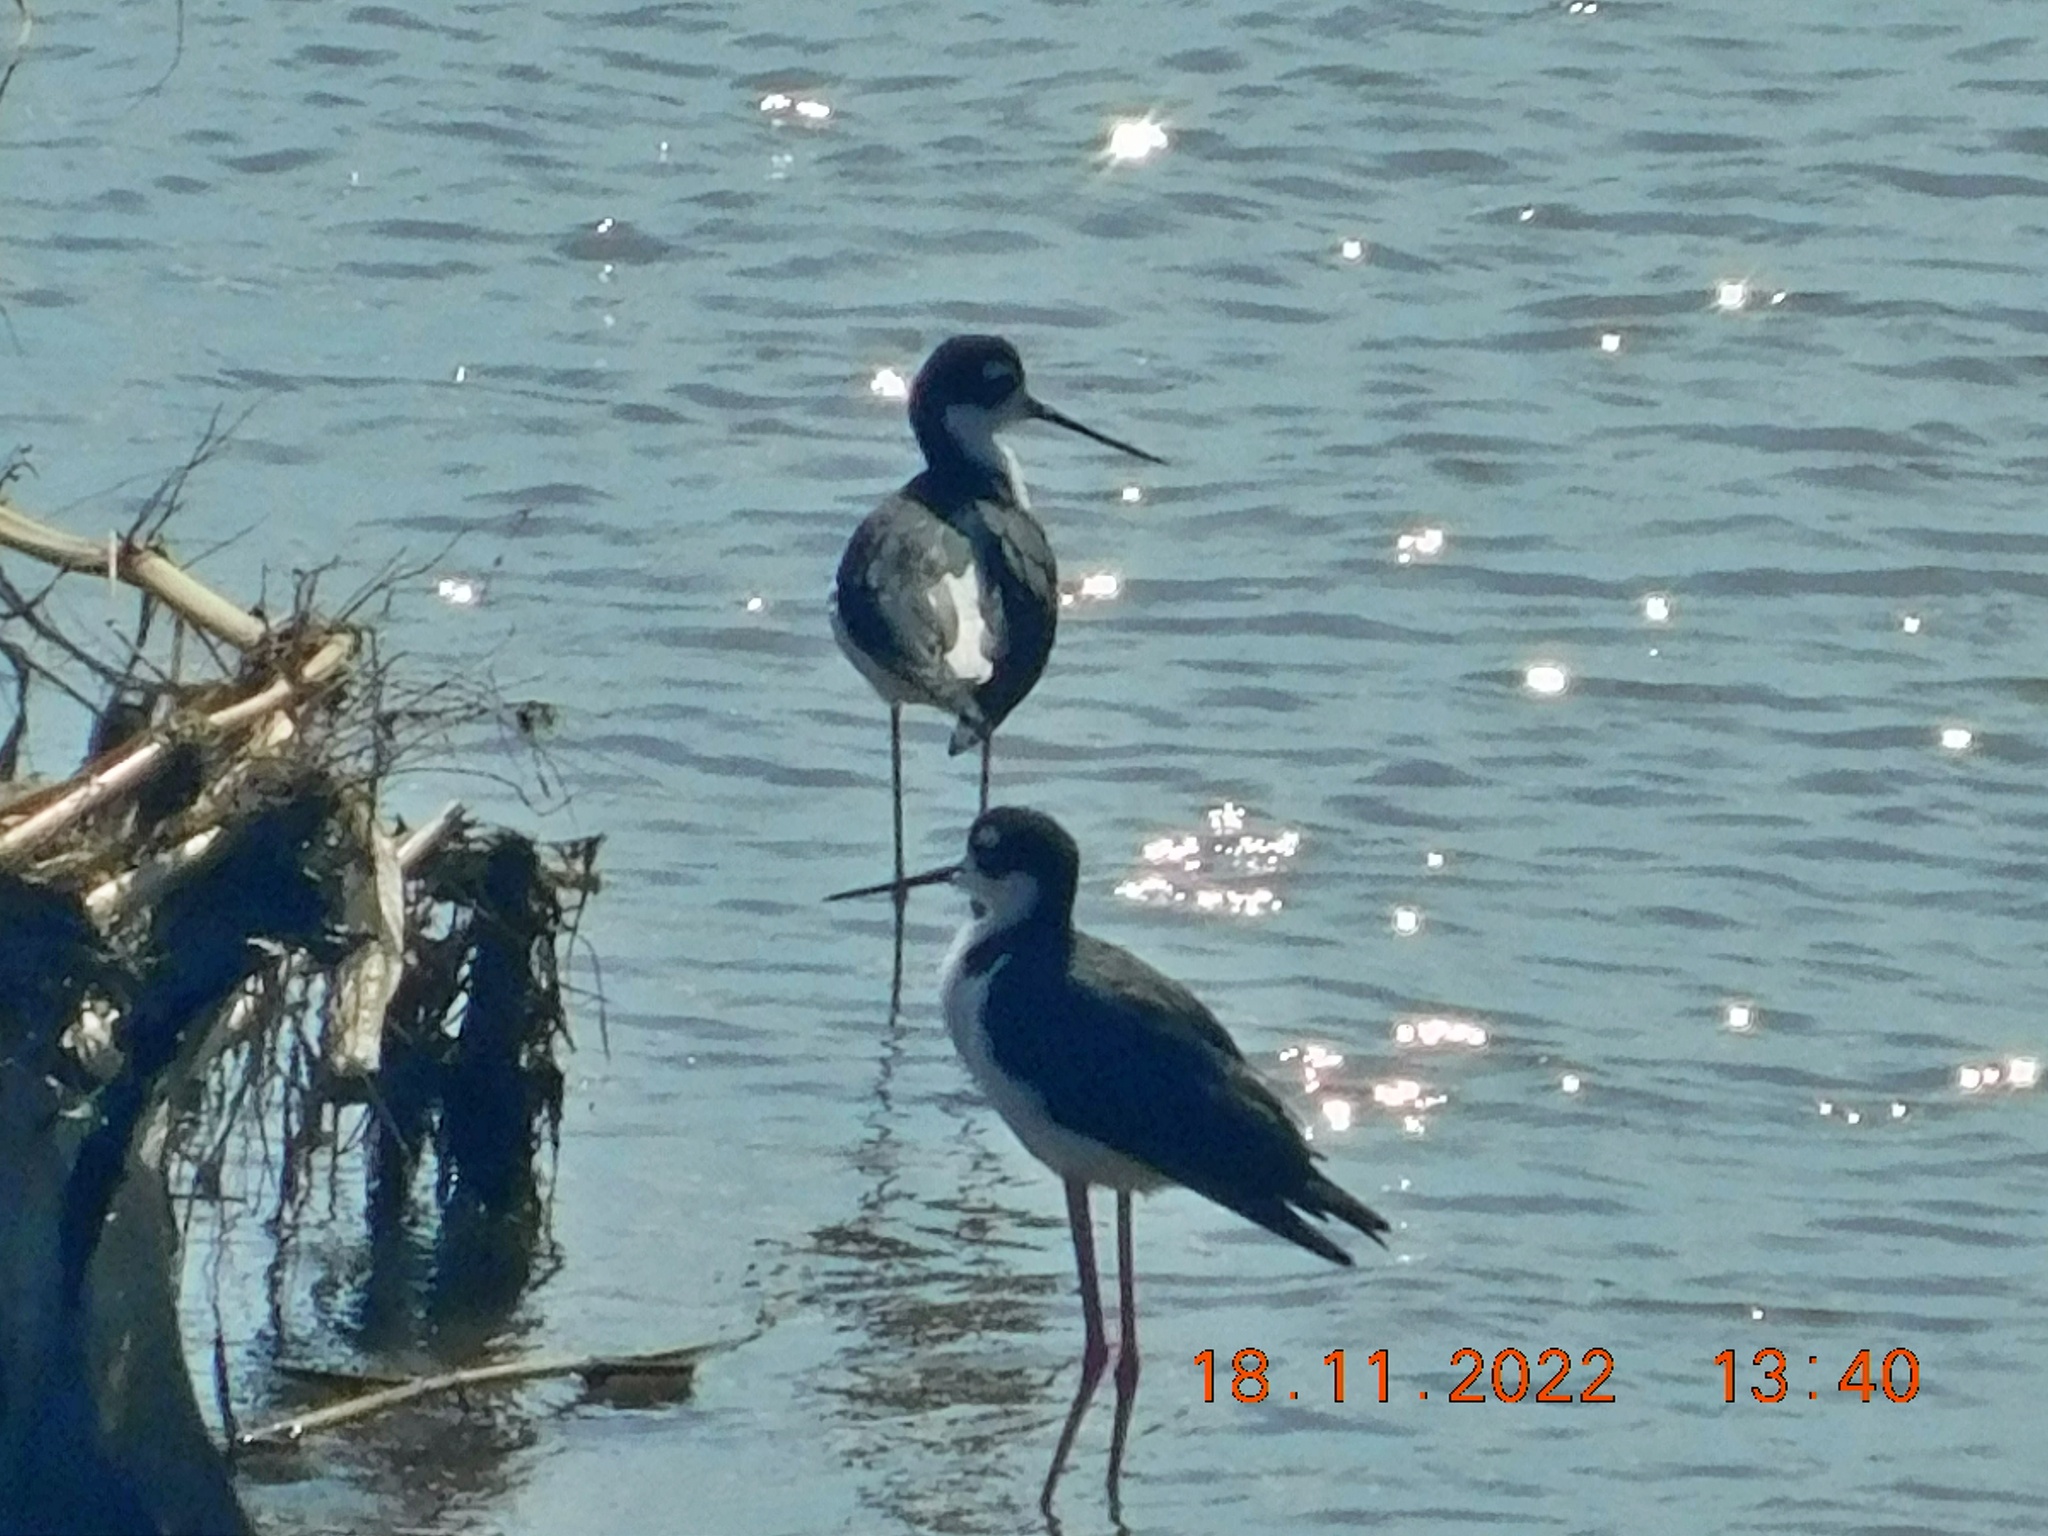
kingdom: Animalia
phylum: Chordata
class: Aves
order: Charadriiformes
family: Recurvirostridae
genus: Himantopus
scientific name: Himantopus mexicanus
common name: Black-necked stilt
